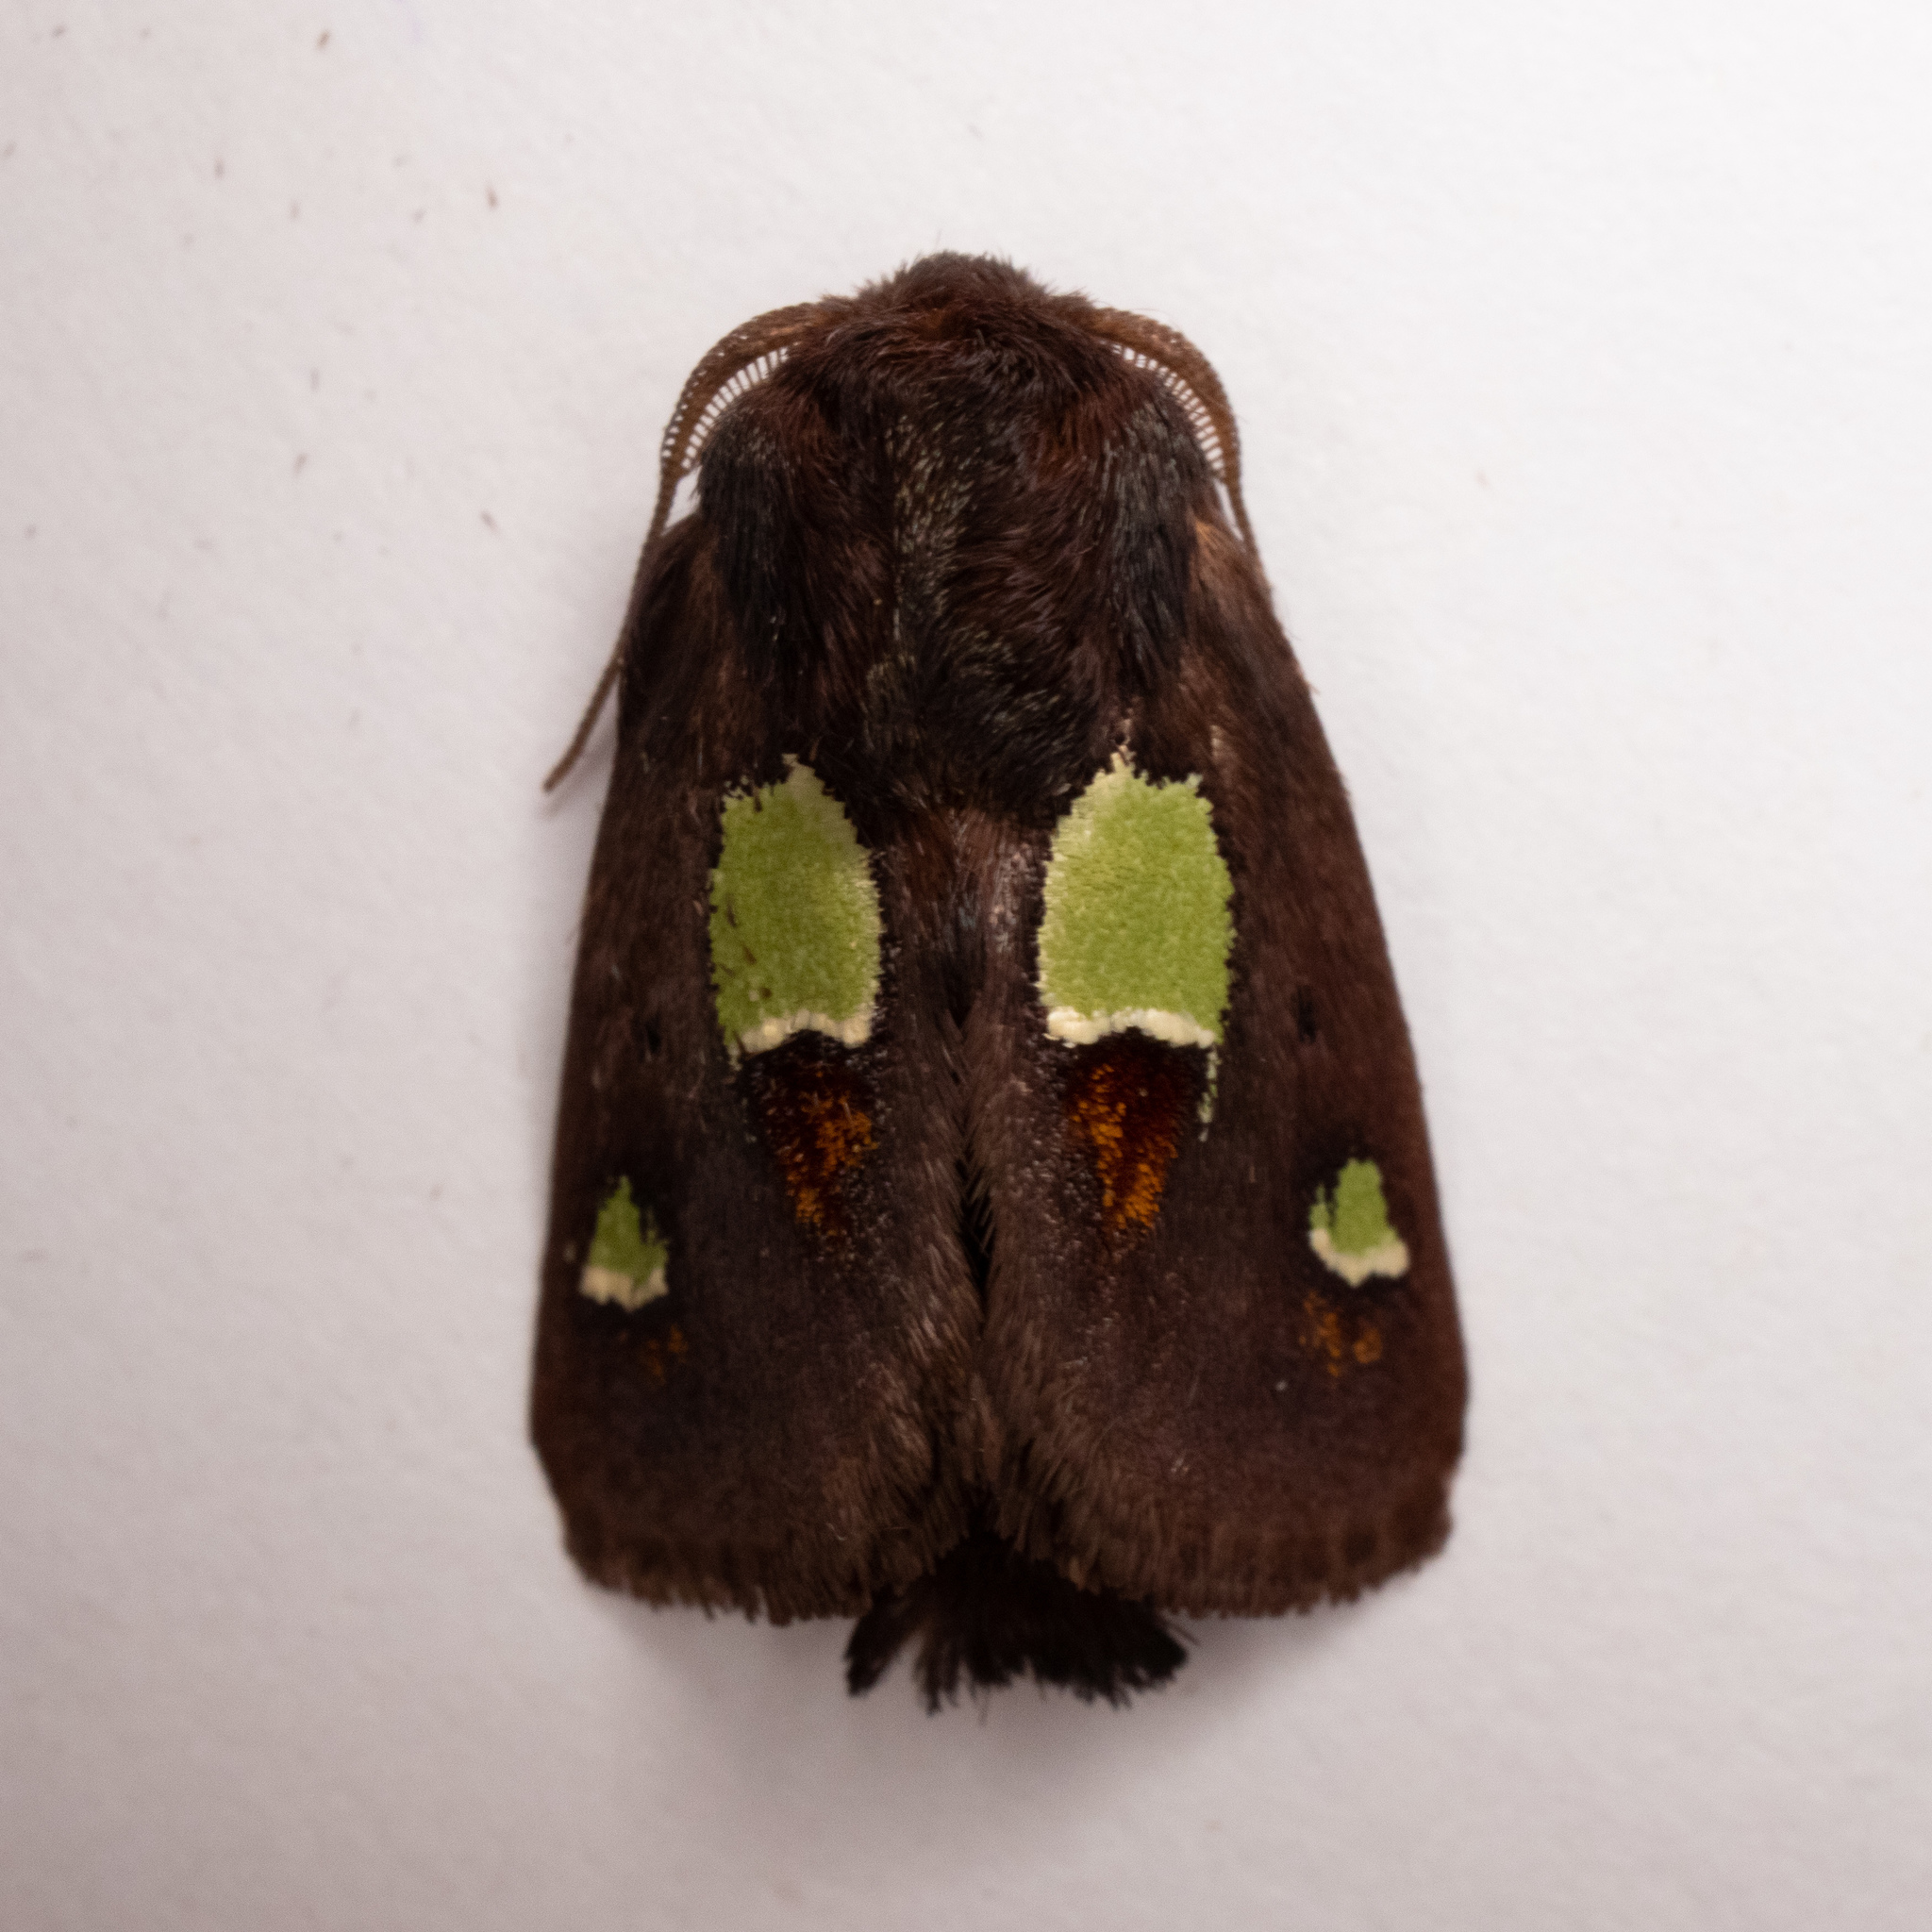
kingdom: Animalia
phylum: Arthropoda
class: Insecta
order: Lepidoptera
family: Limacodidae
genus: Euclea
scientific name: Euclea nanina
